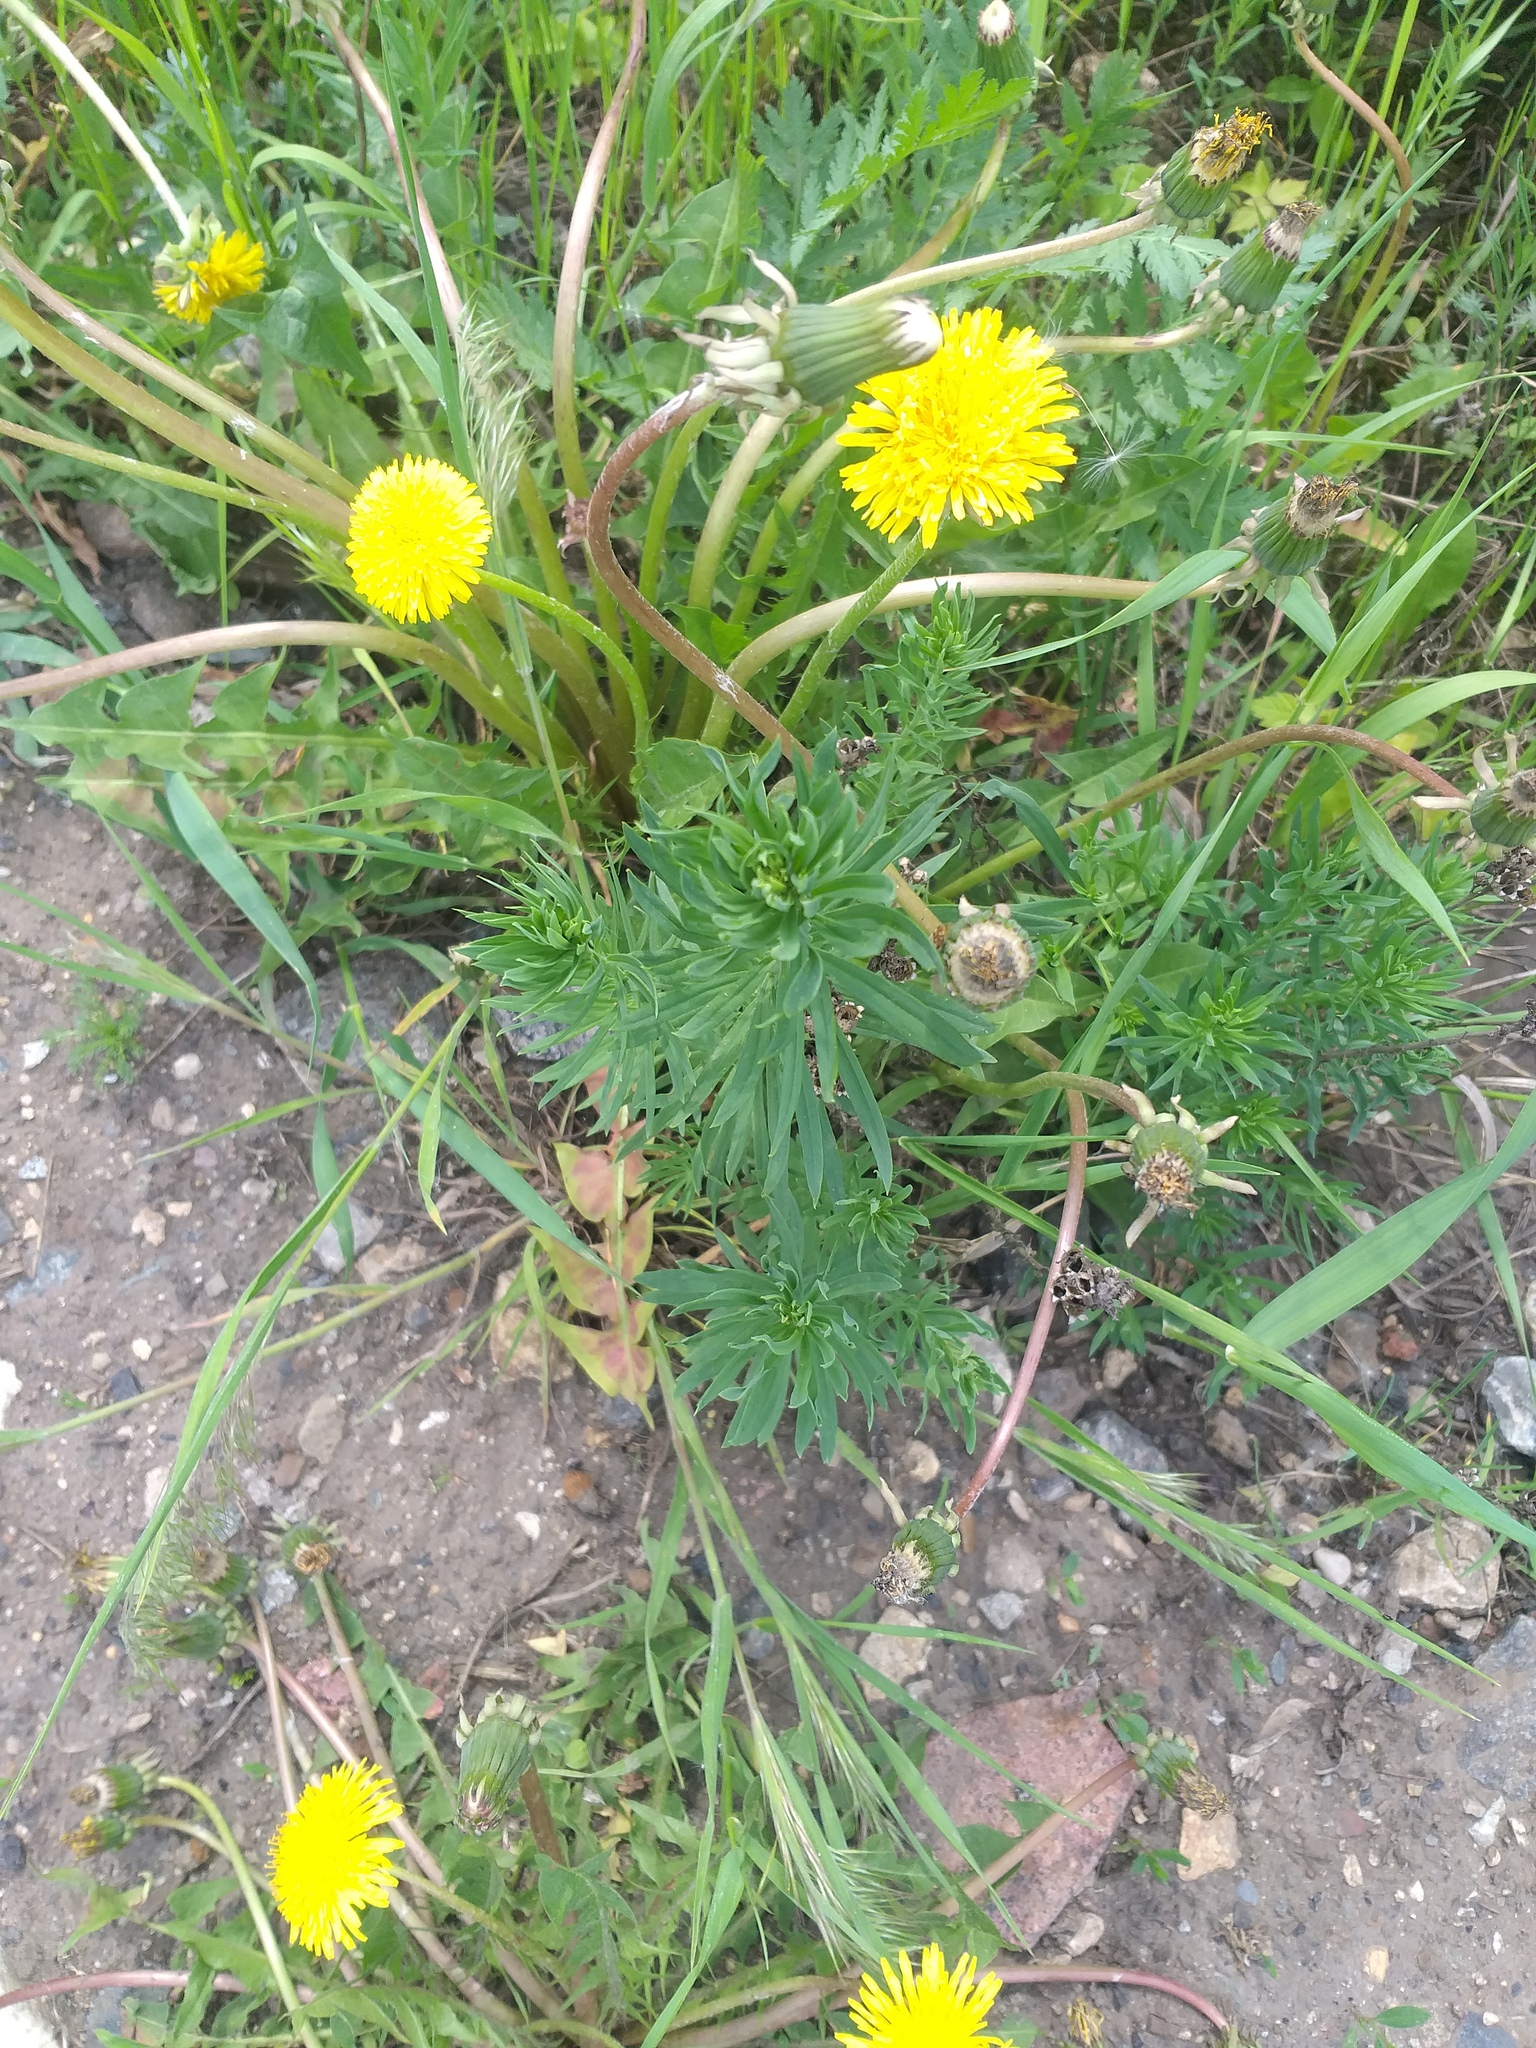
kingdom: Plantae
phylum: Tracheophyta
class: Magnoliopsida
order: Lamiales
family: Plantaginaceae
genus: Linaria
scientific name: Linaria vulgaris
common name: Butter and eggs
